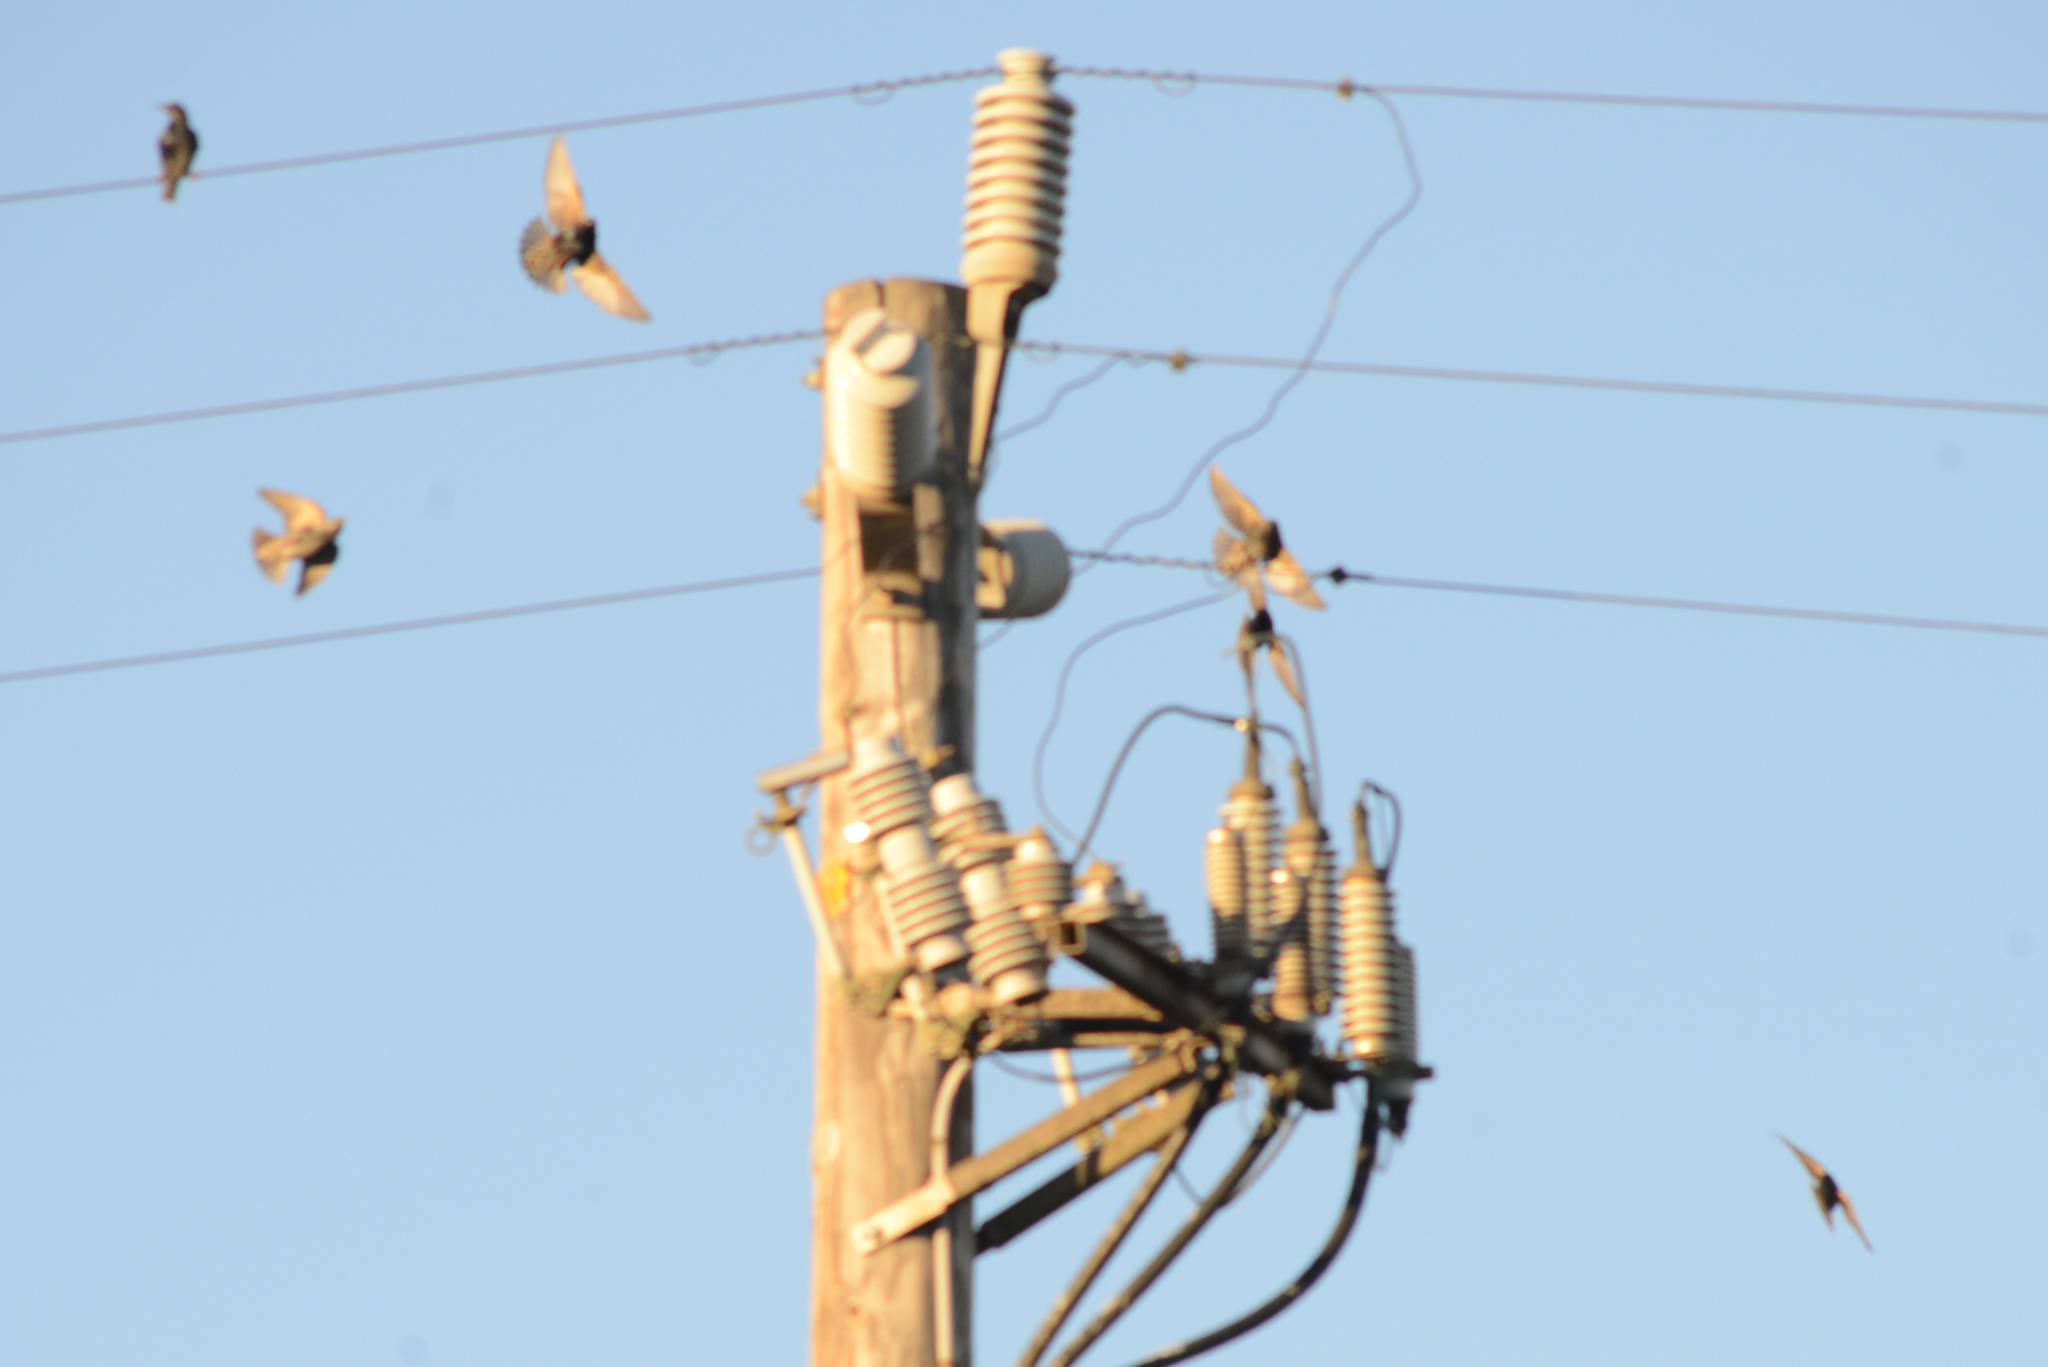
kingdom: Animalia
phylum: Chordata
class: Aves
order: Passeriformes
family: Sturnidae
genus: Sturnus
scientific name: Sturnus vulgaris
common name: Common starling
